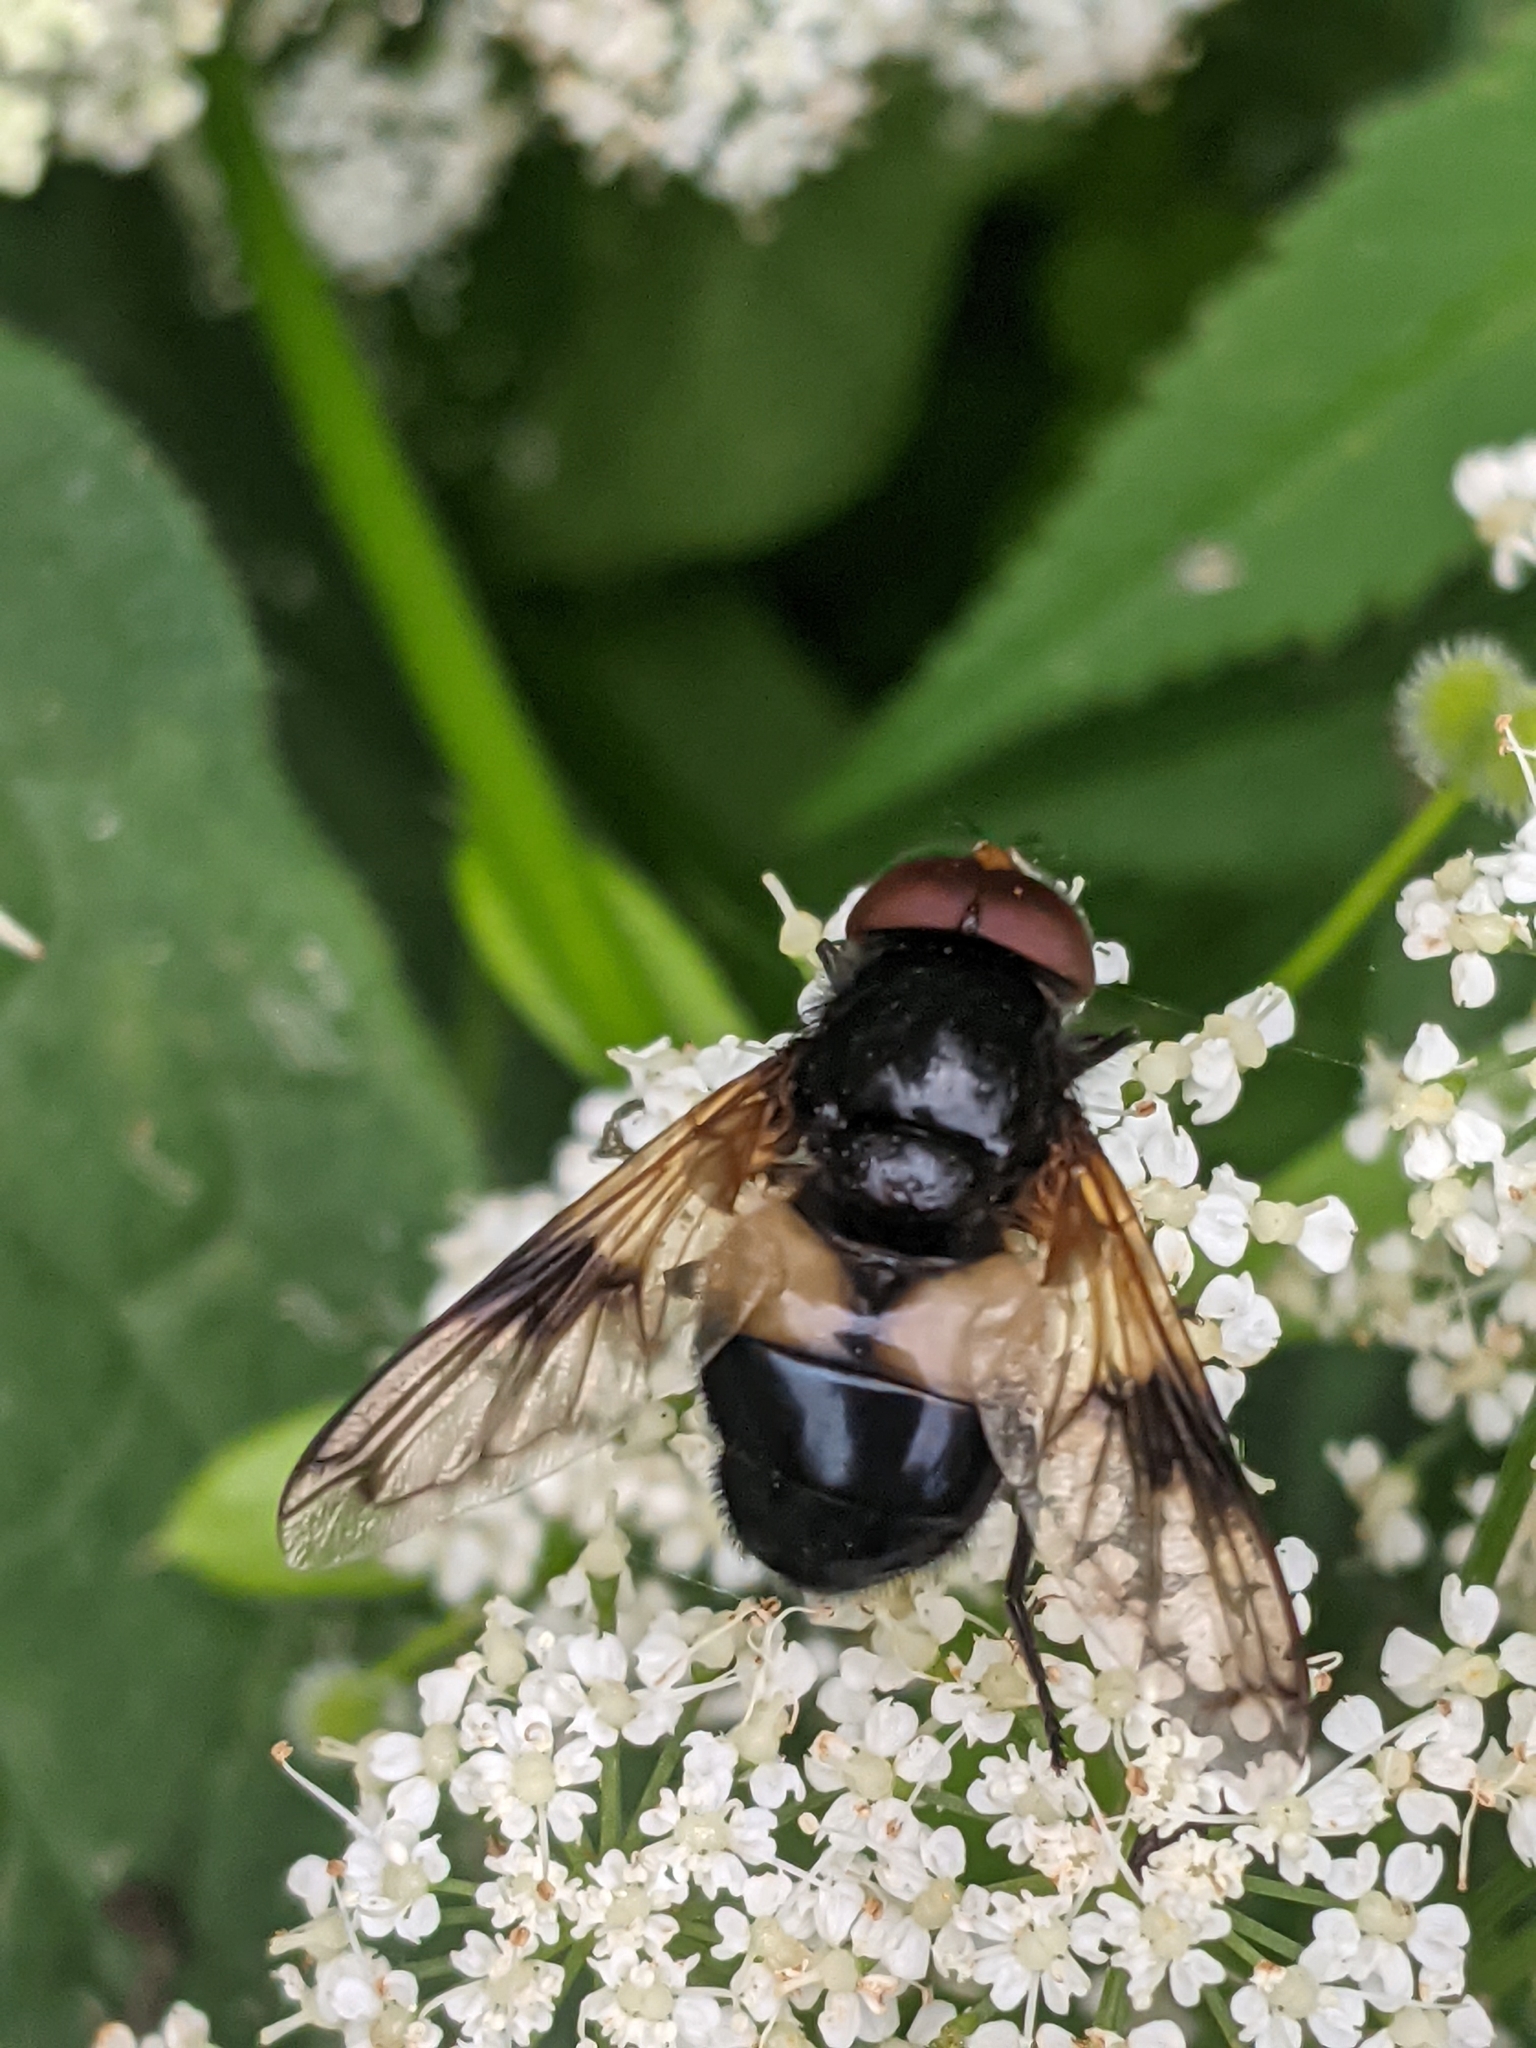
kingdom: Animalia
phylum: Arthropoda
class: Insecta
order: Diptera
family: Syrphidae
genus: Volucella
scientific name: Volucella pellucens
